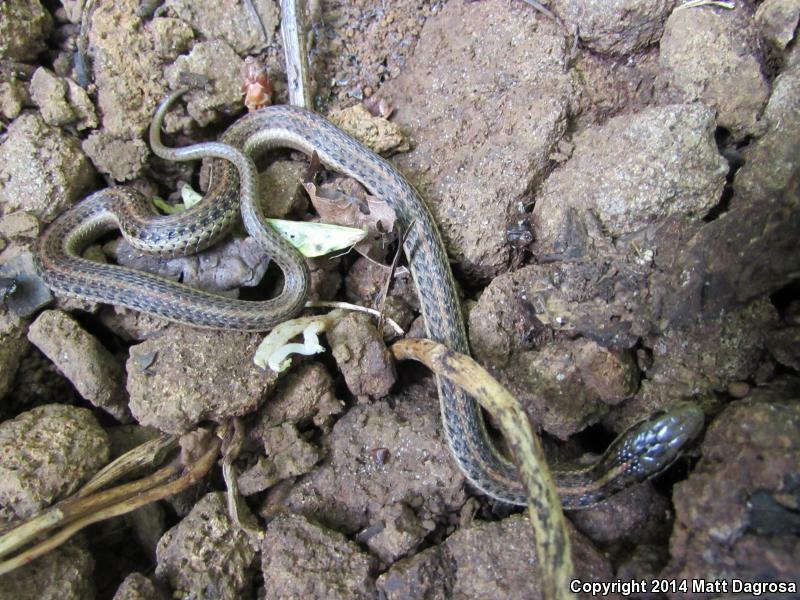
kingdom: Animalia
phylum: Chordata
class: Squamata
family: Colubridae
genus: Thamnophis
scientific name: Thamnophis ordinoides
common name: Northwestern garter snake
